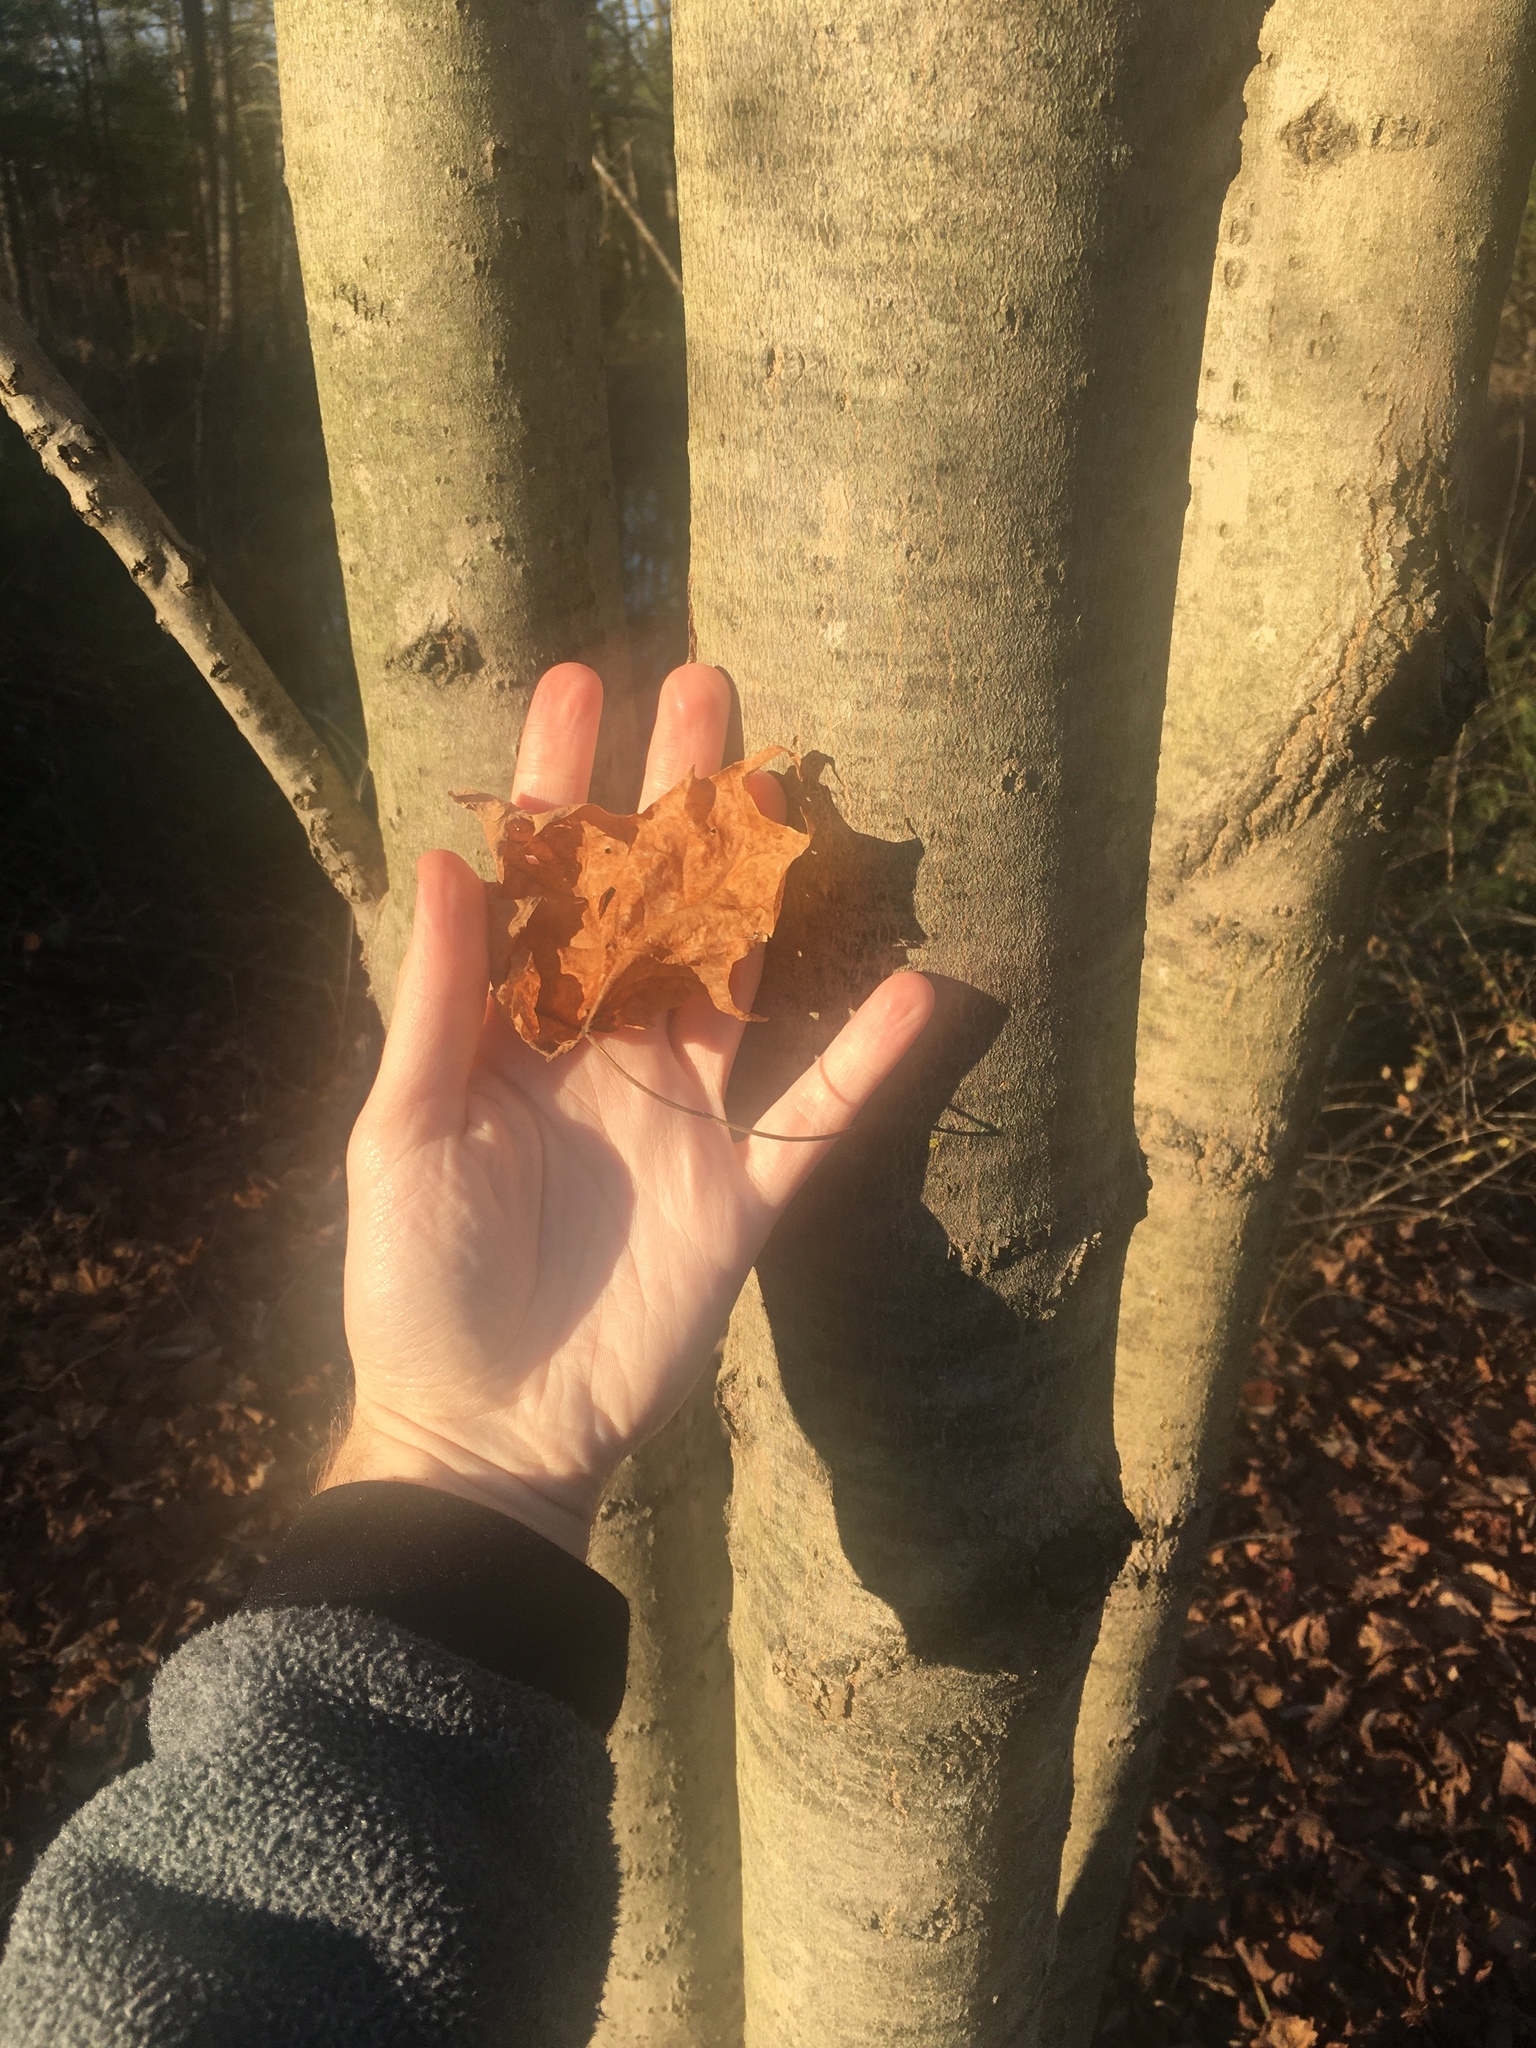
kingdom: Plantae
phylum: Tracheophyta
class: Magnoliopsida
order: Sapindales
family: Sapindaceae
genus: Acer
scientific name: Acer saccharum
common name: Sugar maple
